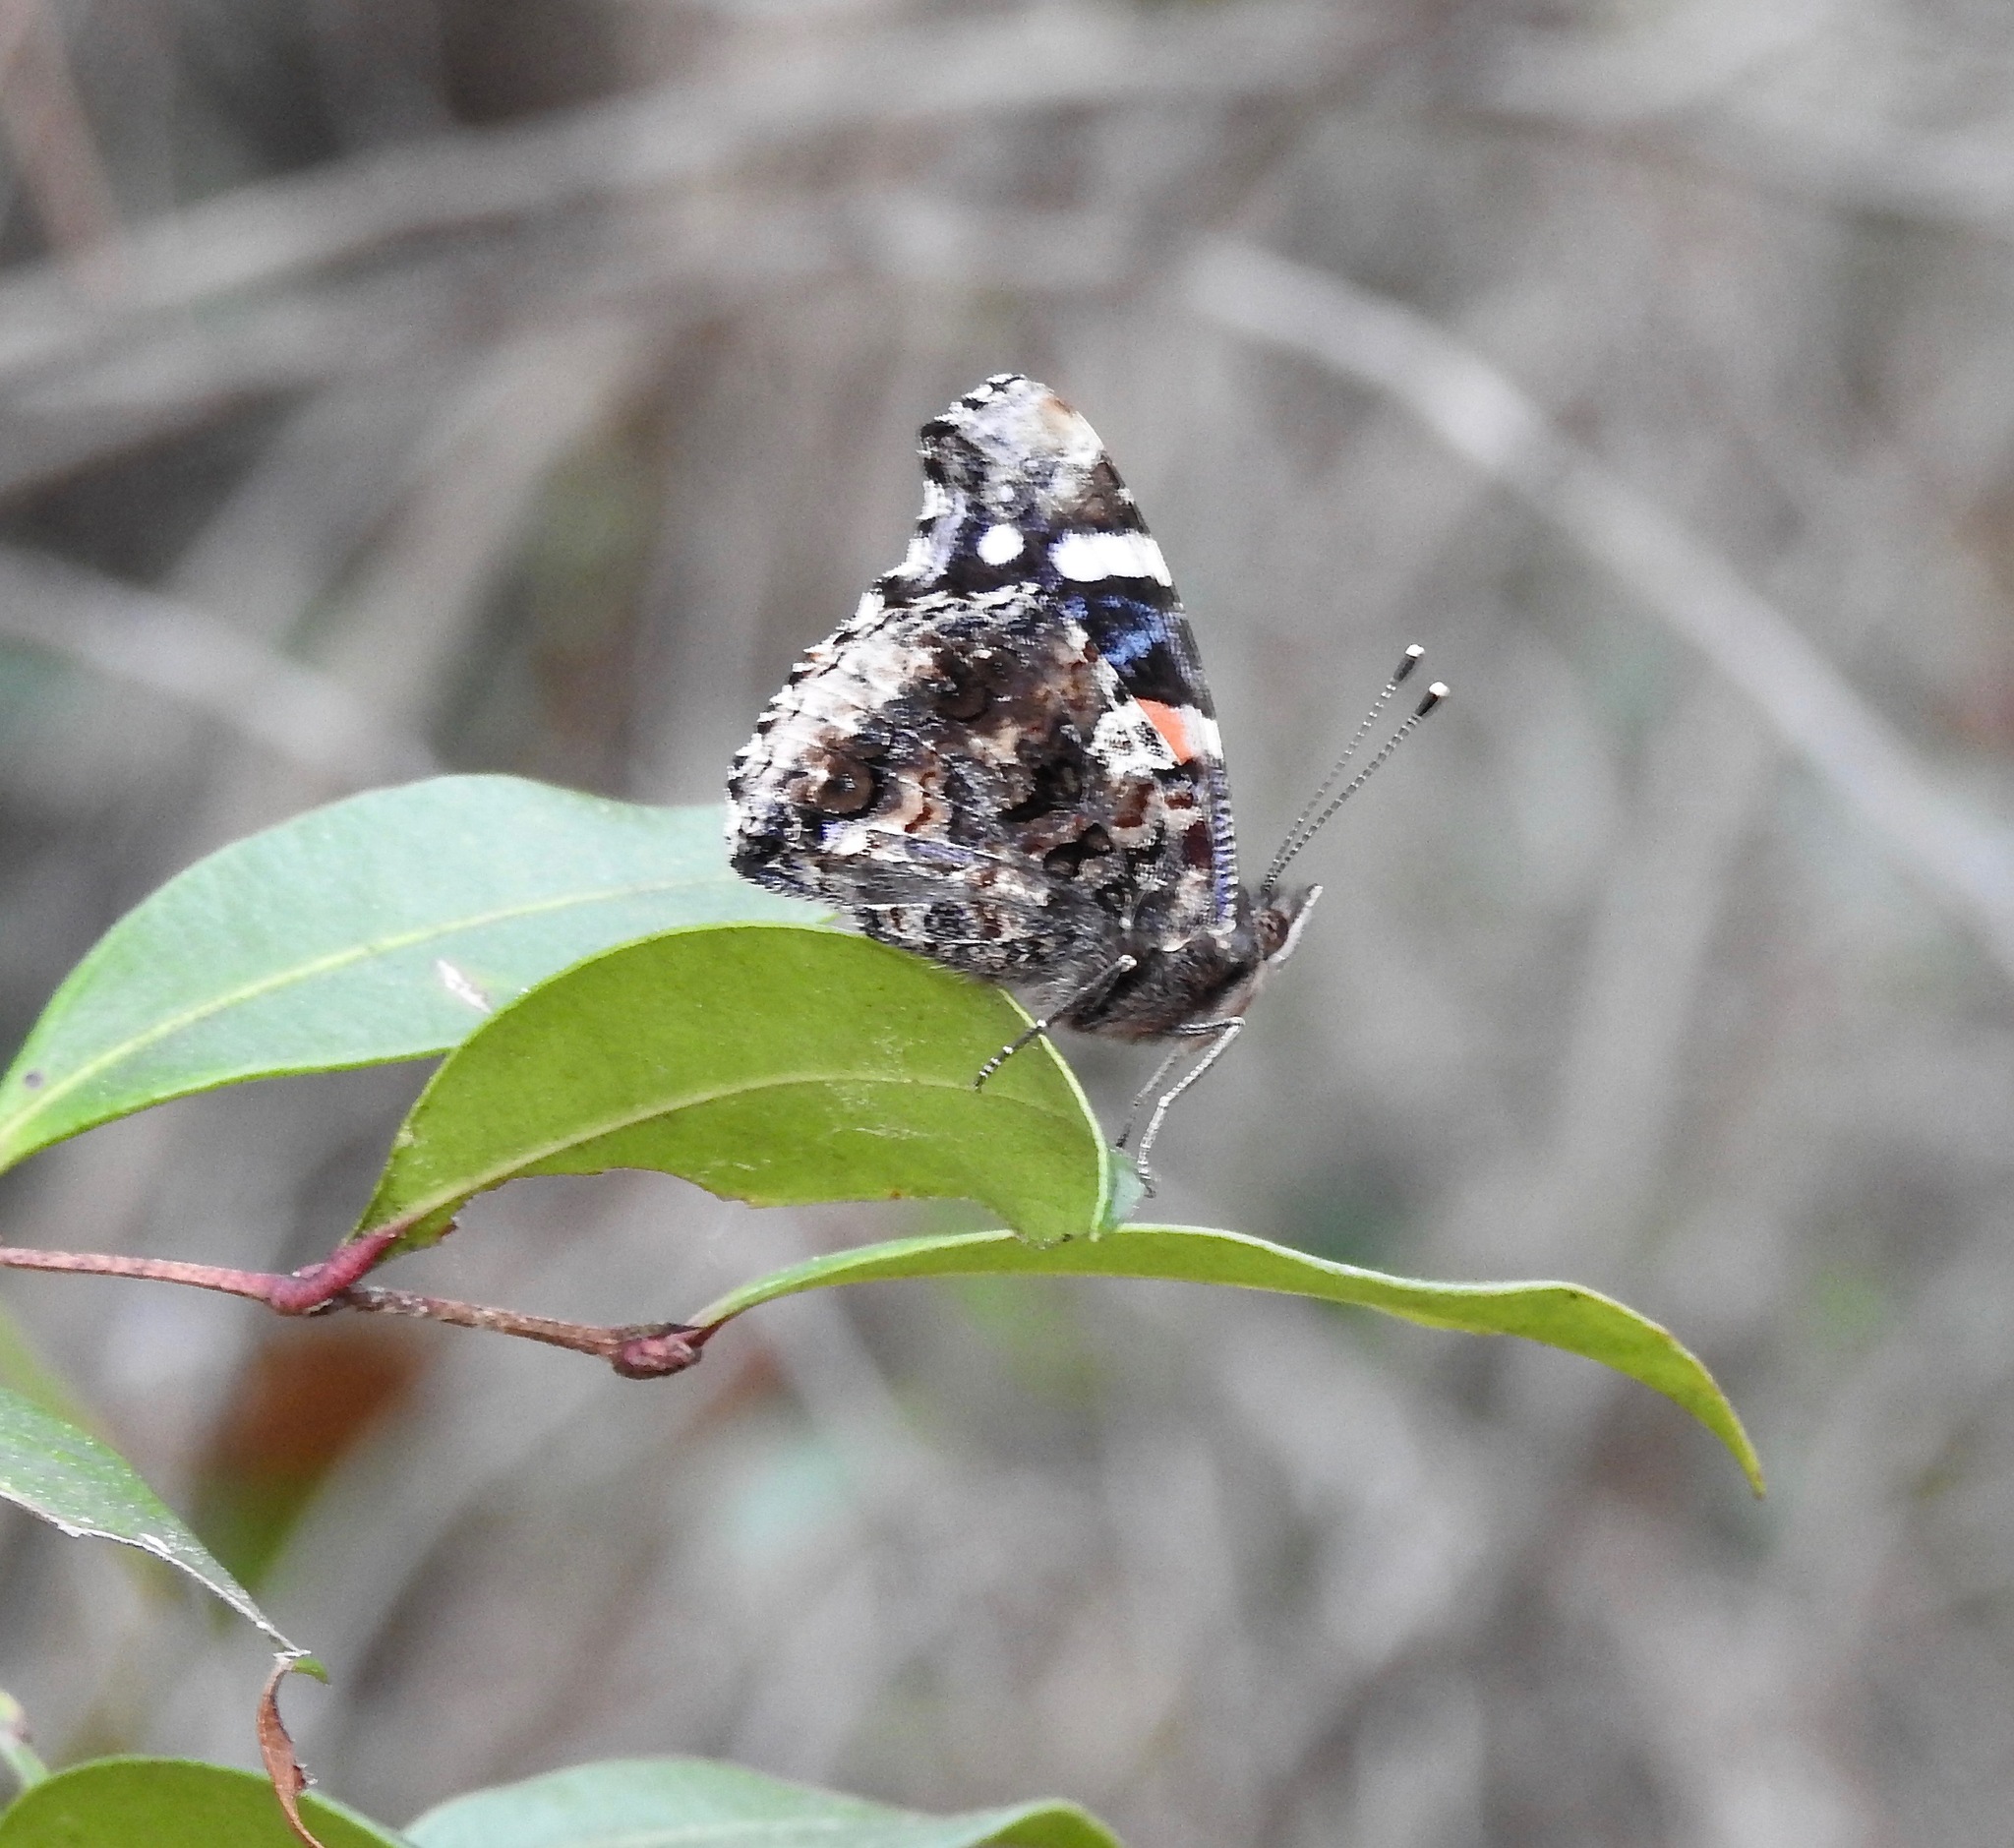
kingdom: Animalia
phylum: Arthropoda
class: Insecta
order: Lepidoptera
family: Nymphalidae
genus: Vanessa
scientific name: Vanessa atalanta
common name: Red admiral
